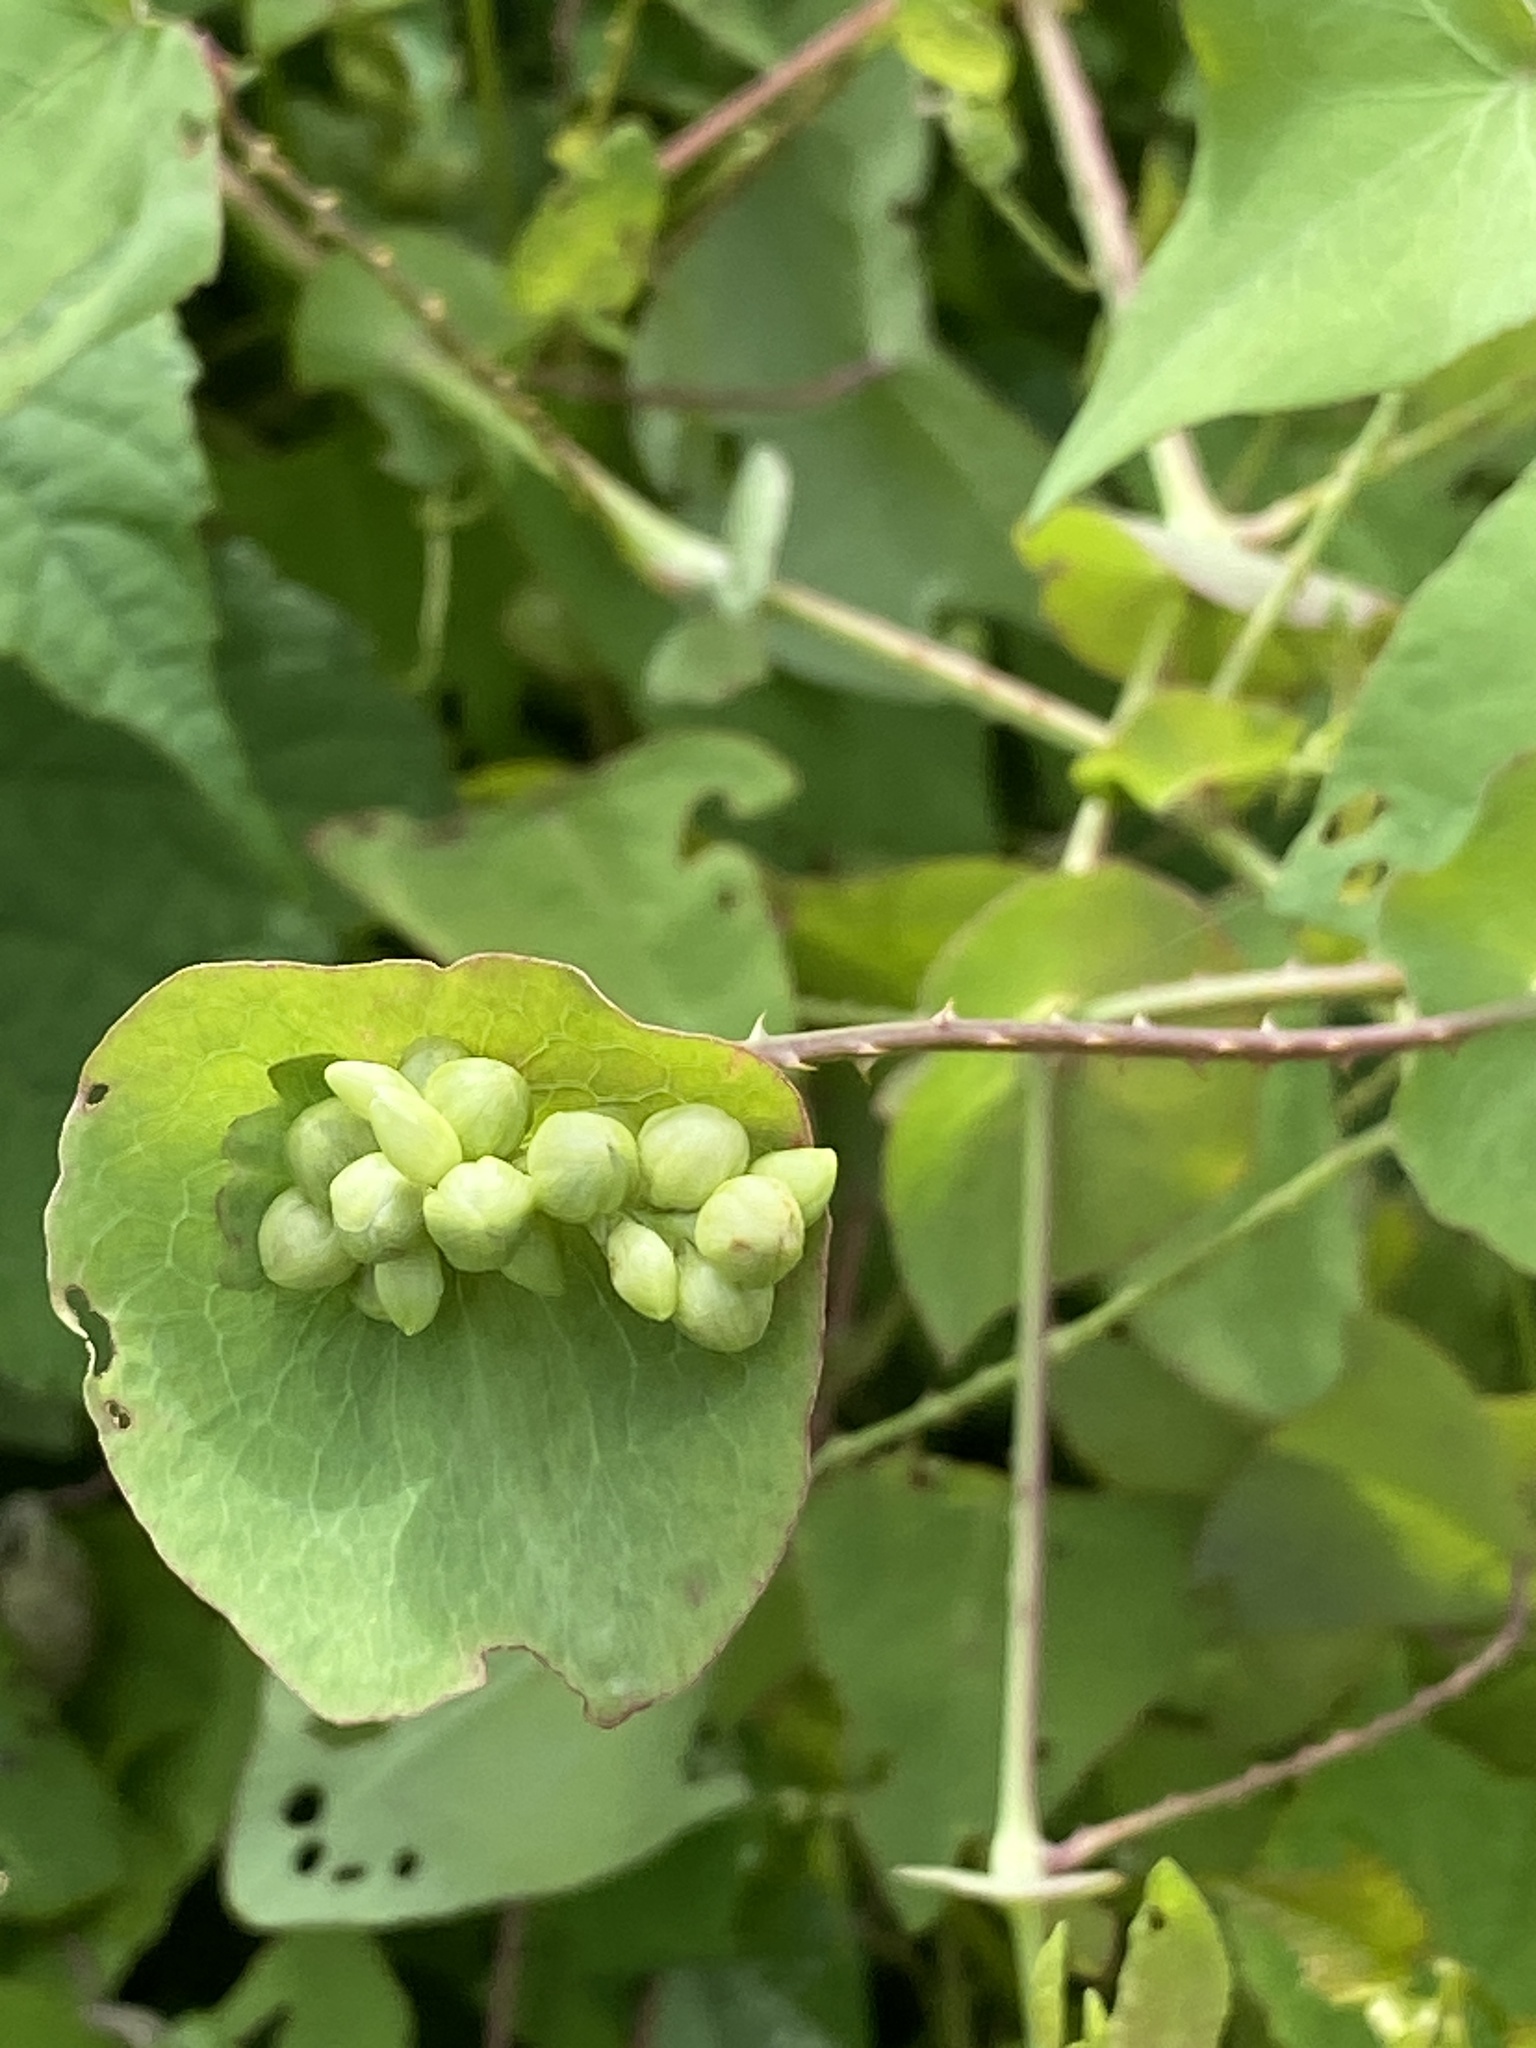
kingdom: Plantae
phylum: Tracheophyta
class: Magnoliopsida
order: Caryophyllales
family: Polygonaceae
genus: Persicaria
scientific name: Persicaria perfoliata
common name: Asiatic tearthumb
